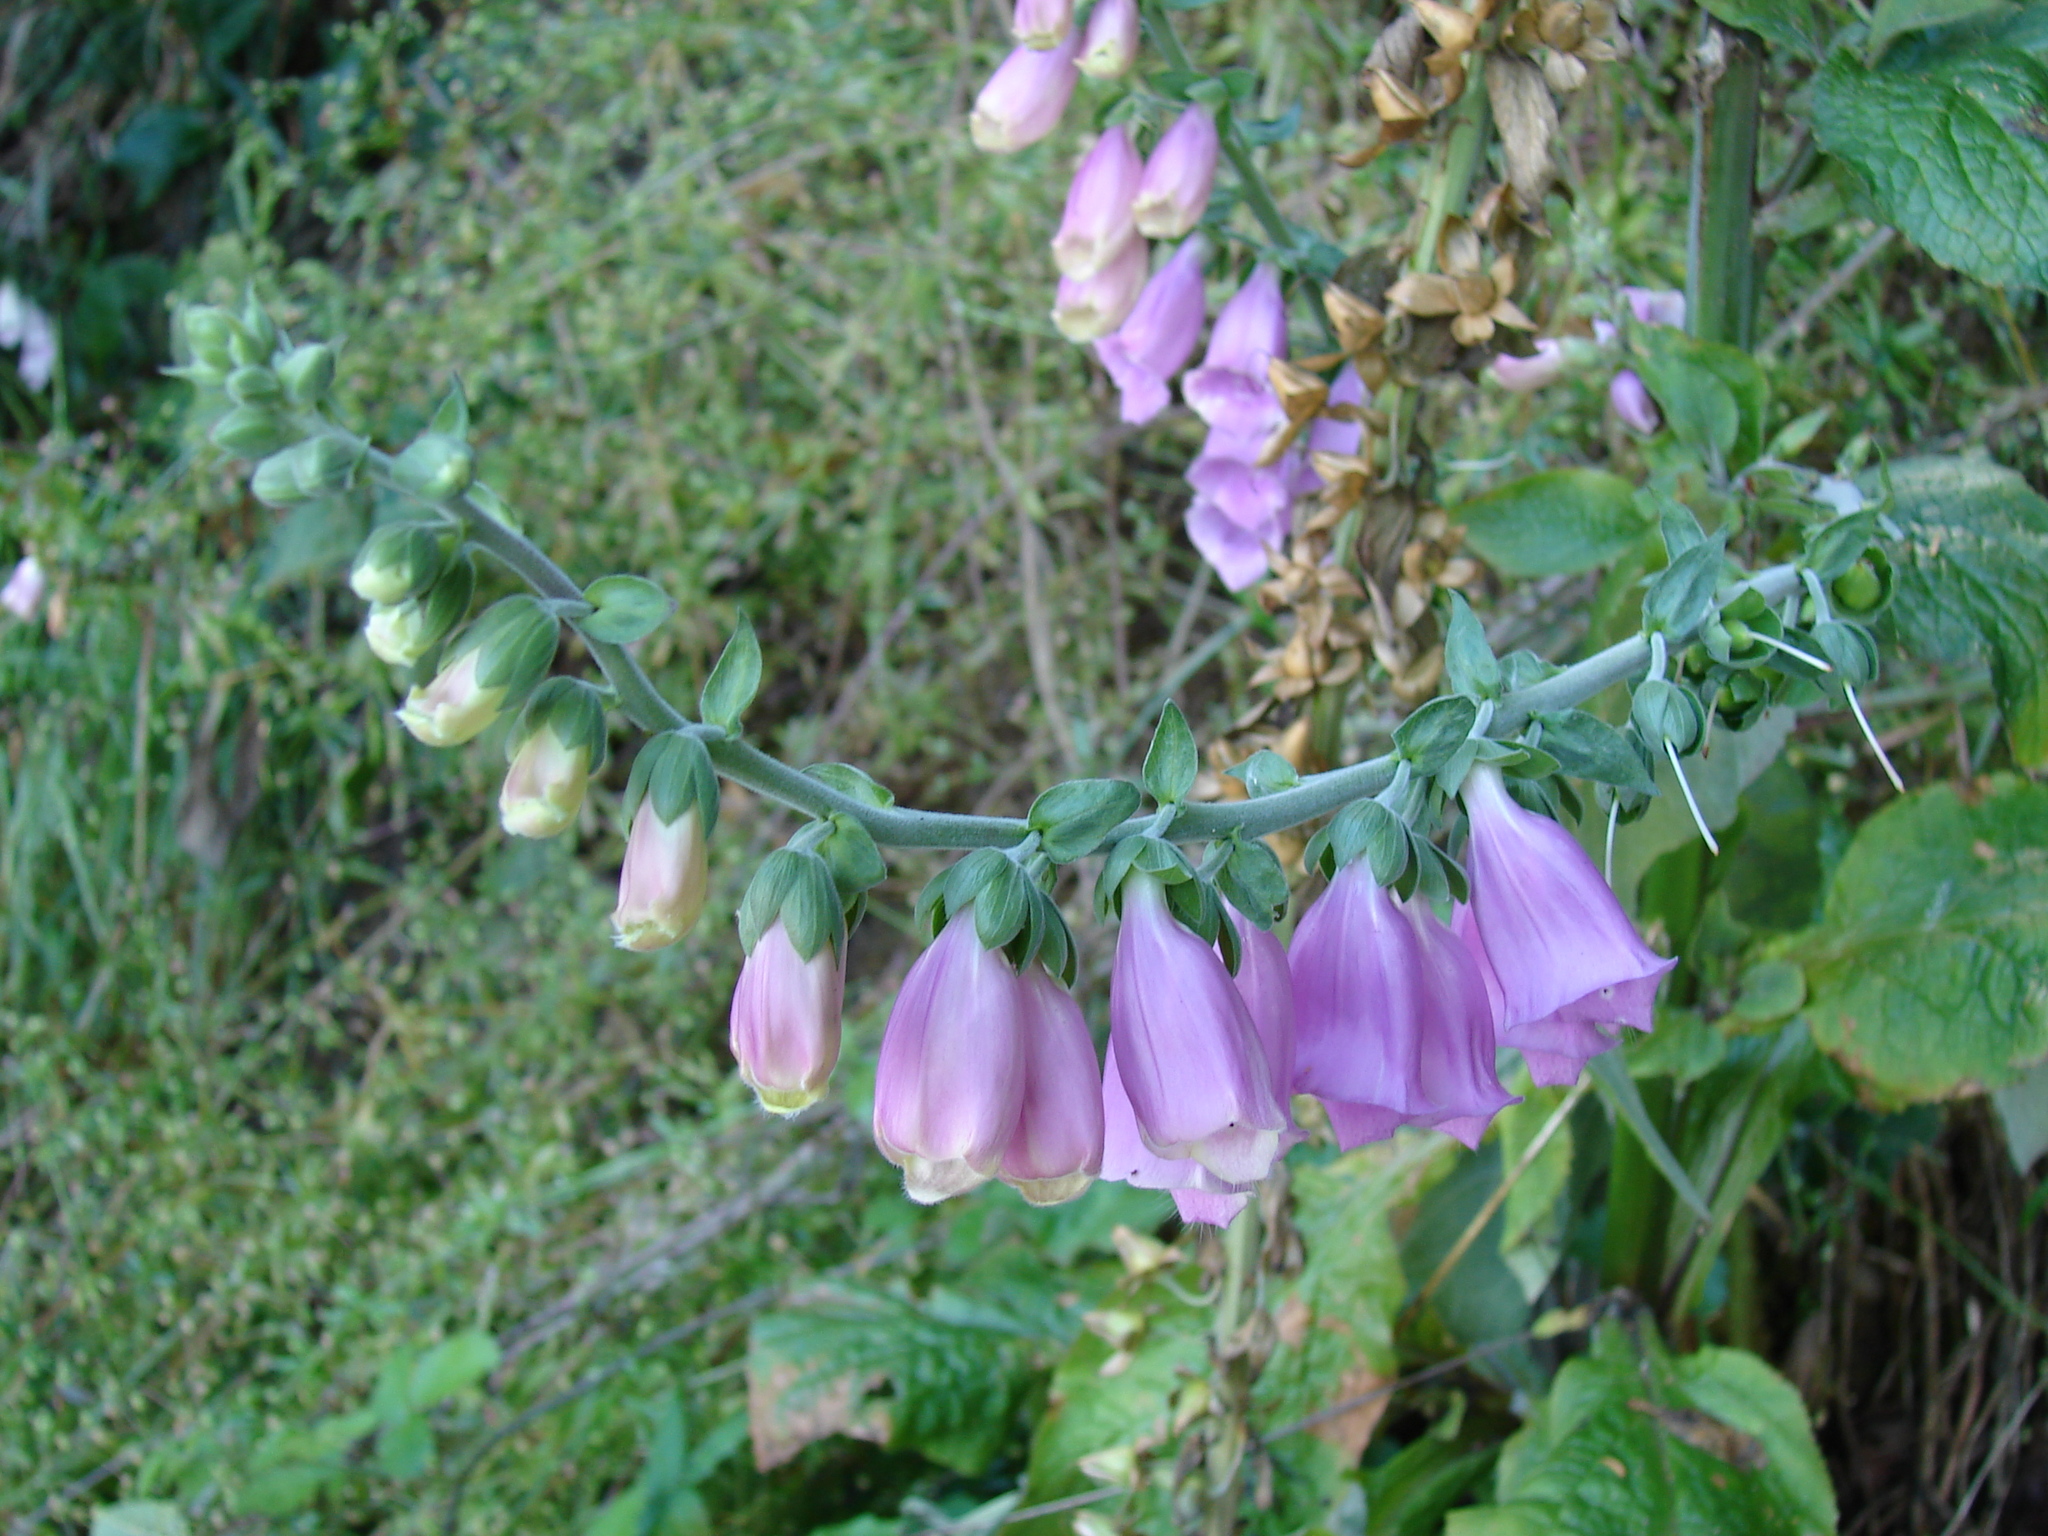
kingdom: Plantae
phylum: Tracheophyta
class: Magnoliopsida
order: Lamiales
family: Plantaginaceae
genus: Digitalis
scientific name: Digitalis purpurea
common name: Foxglove
